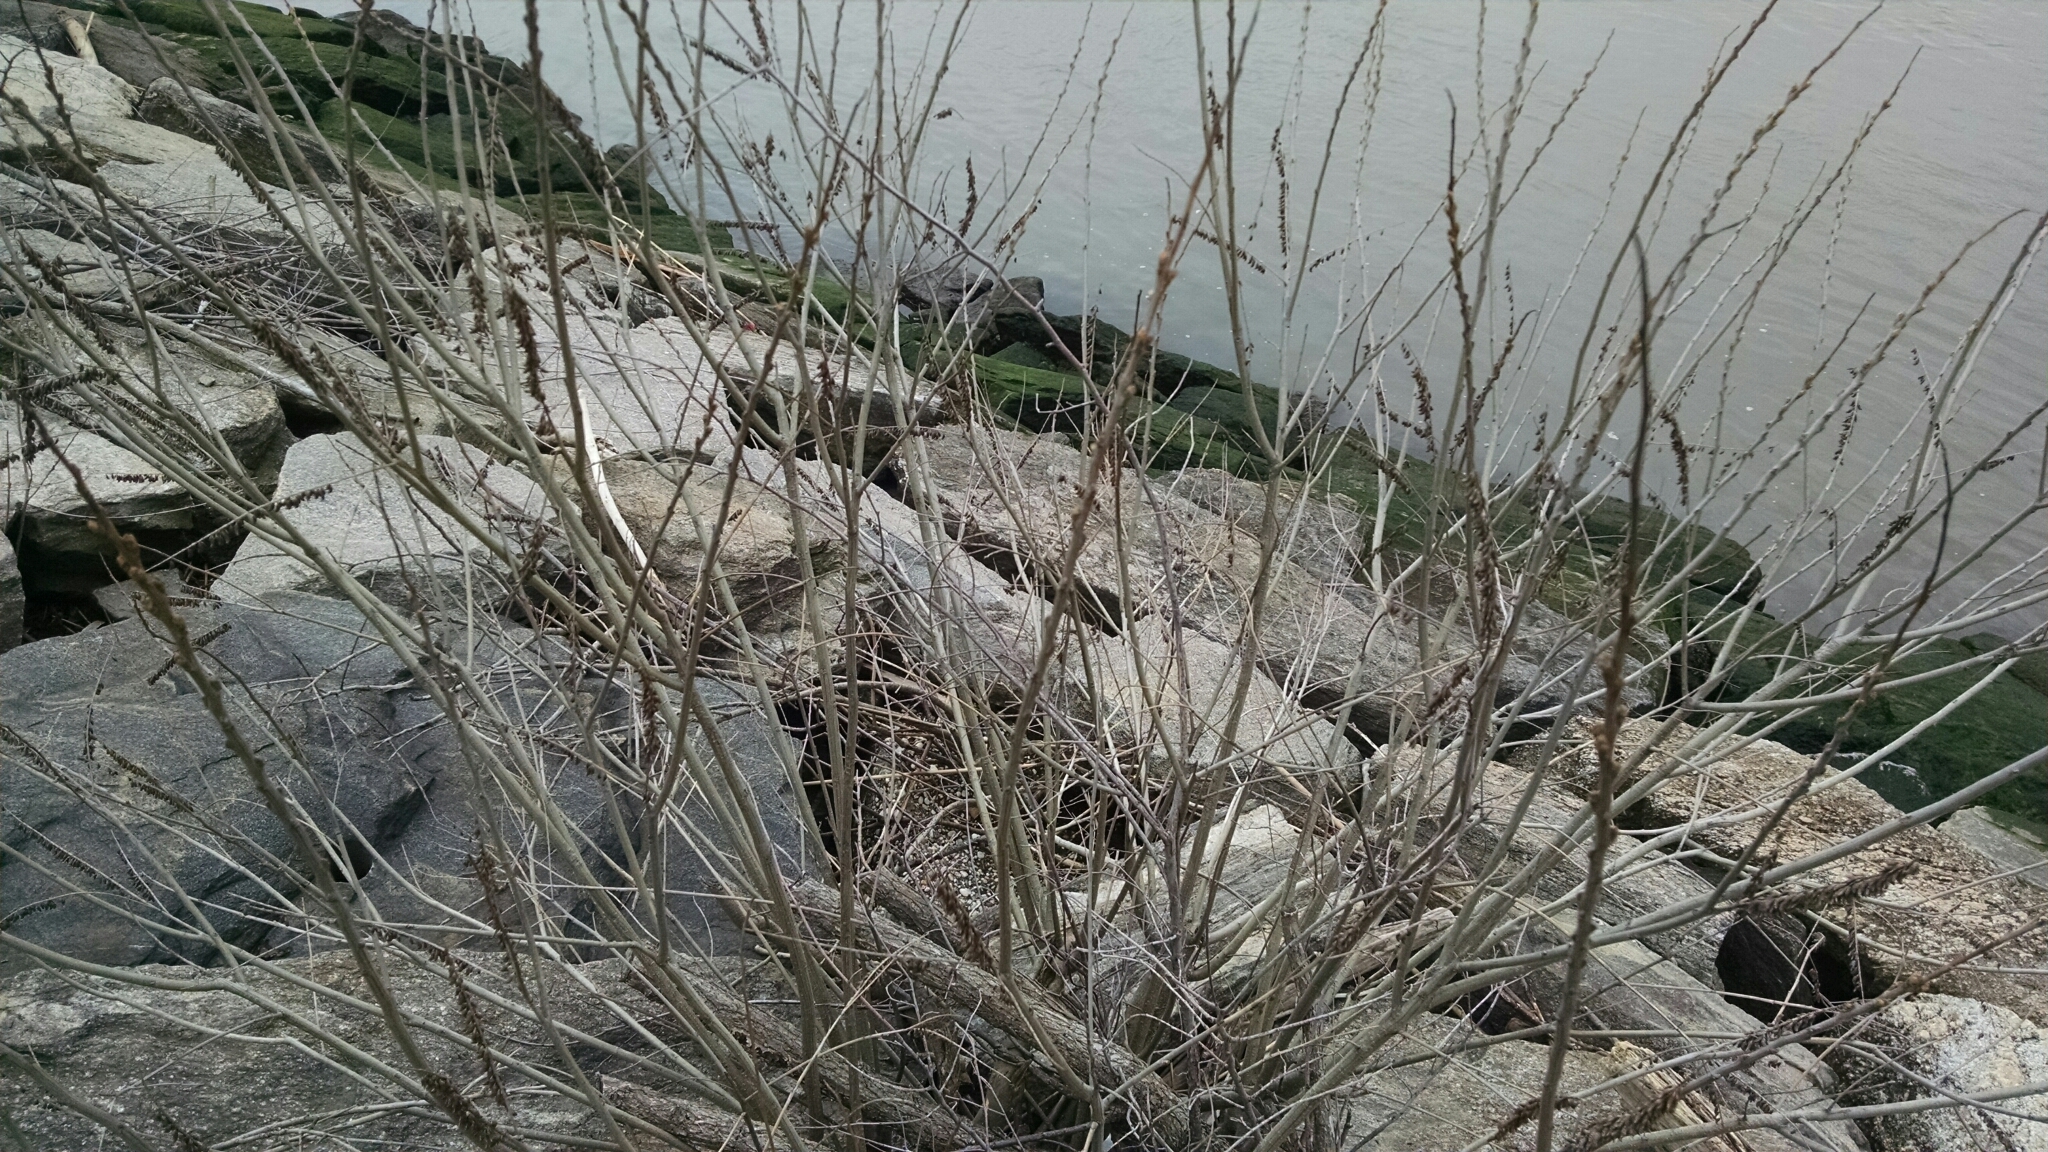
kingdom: Plantae
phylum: Tracheophyta
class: Magnoliopsida
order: Fabales
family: Fabaceae
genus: Amorpha
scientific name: Amorpha fruticosa
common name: False indigo
